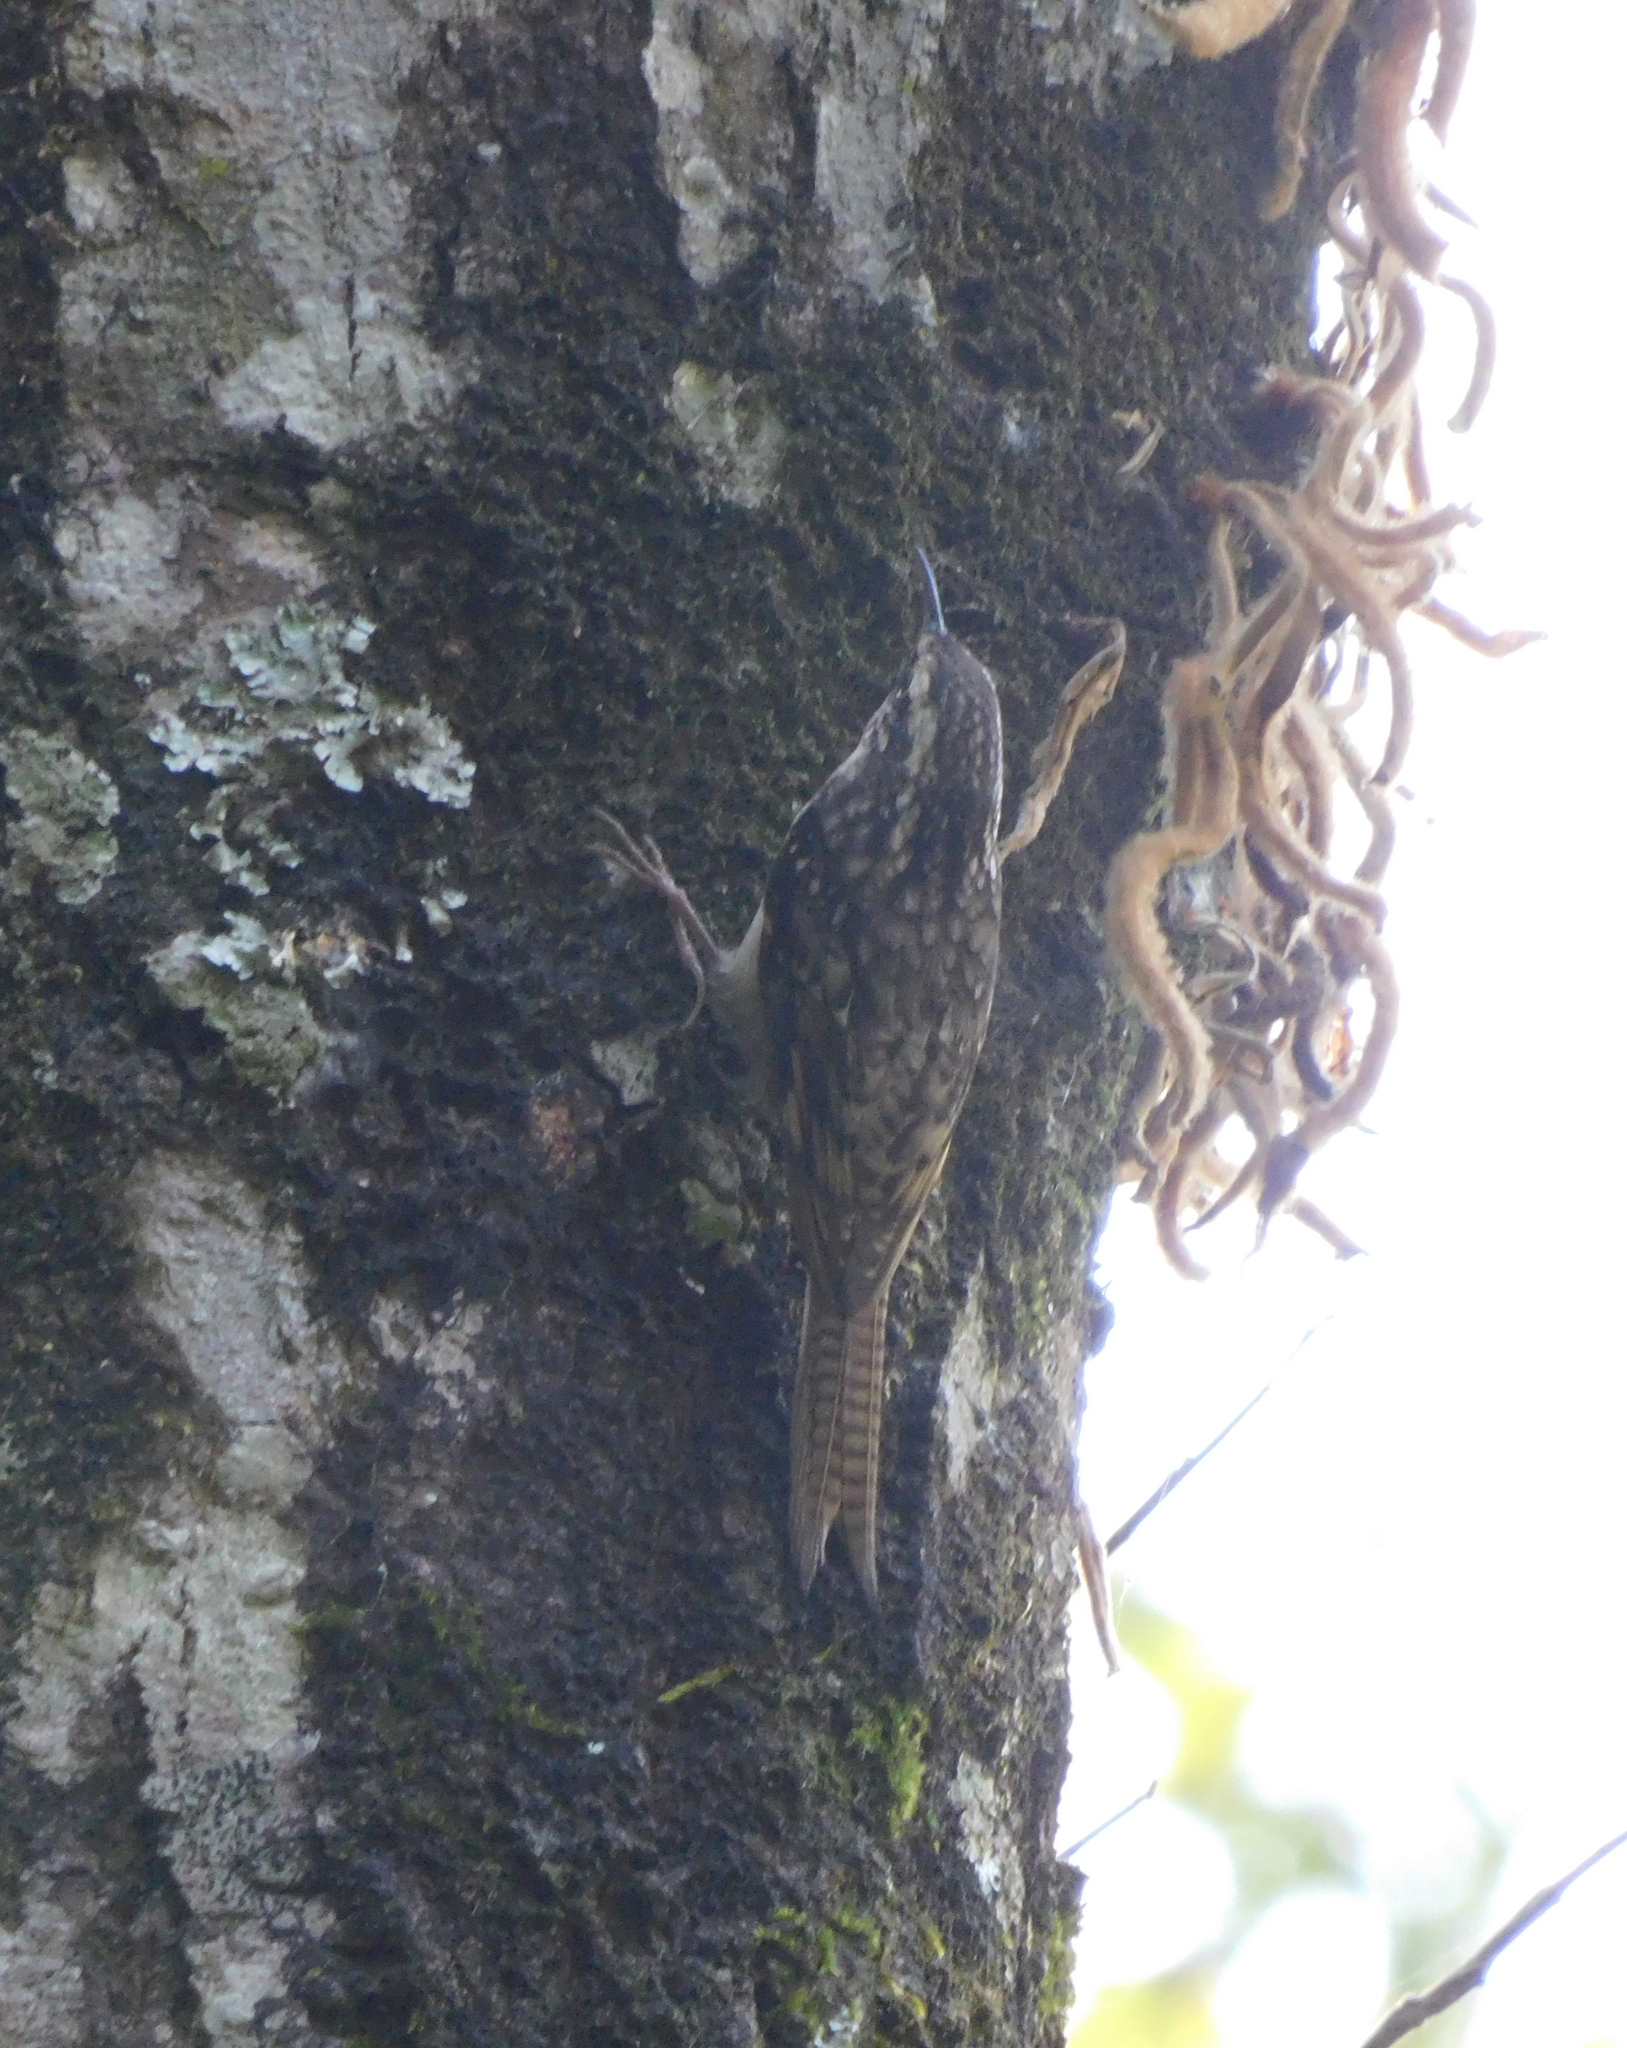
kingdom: Animalia
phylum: Chordata
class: Aves
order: Passeriformes
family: Certhiidae
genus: Certhia
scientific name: Certhia himalayana
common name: Bar-tailed treecreeper
